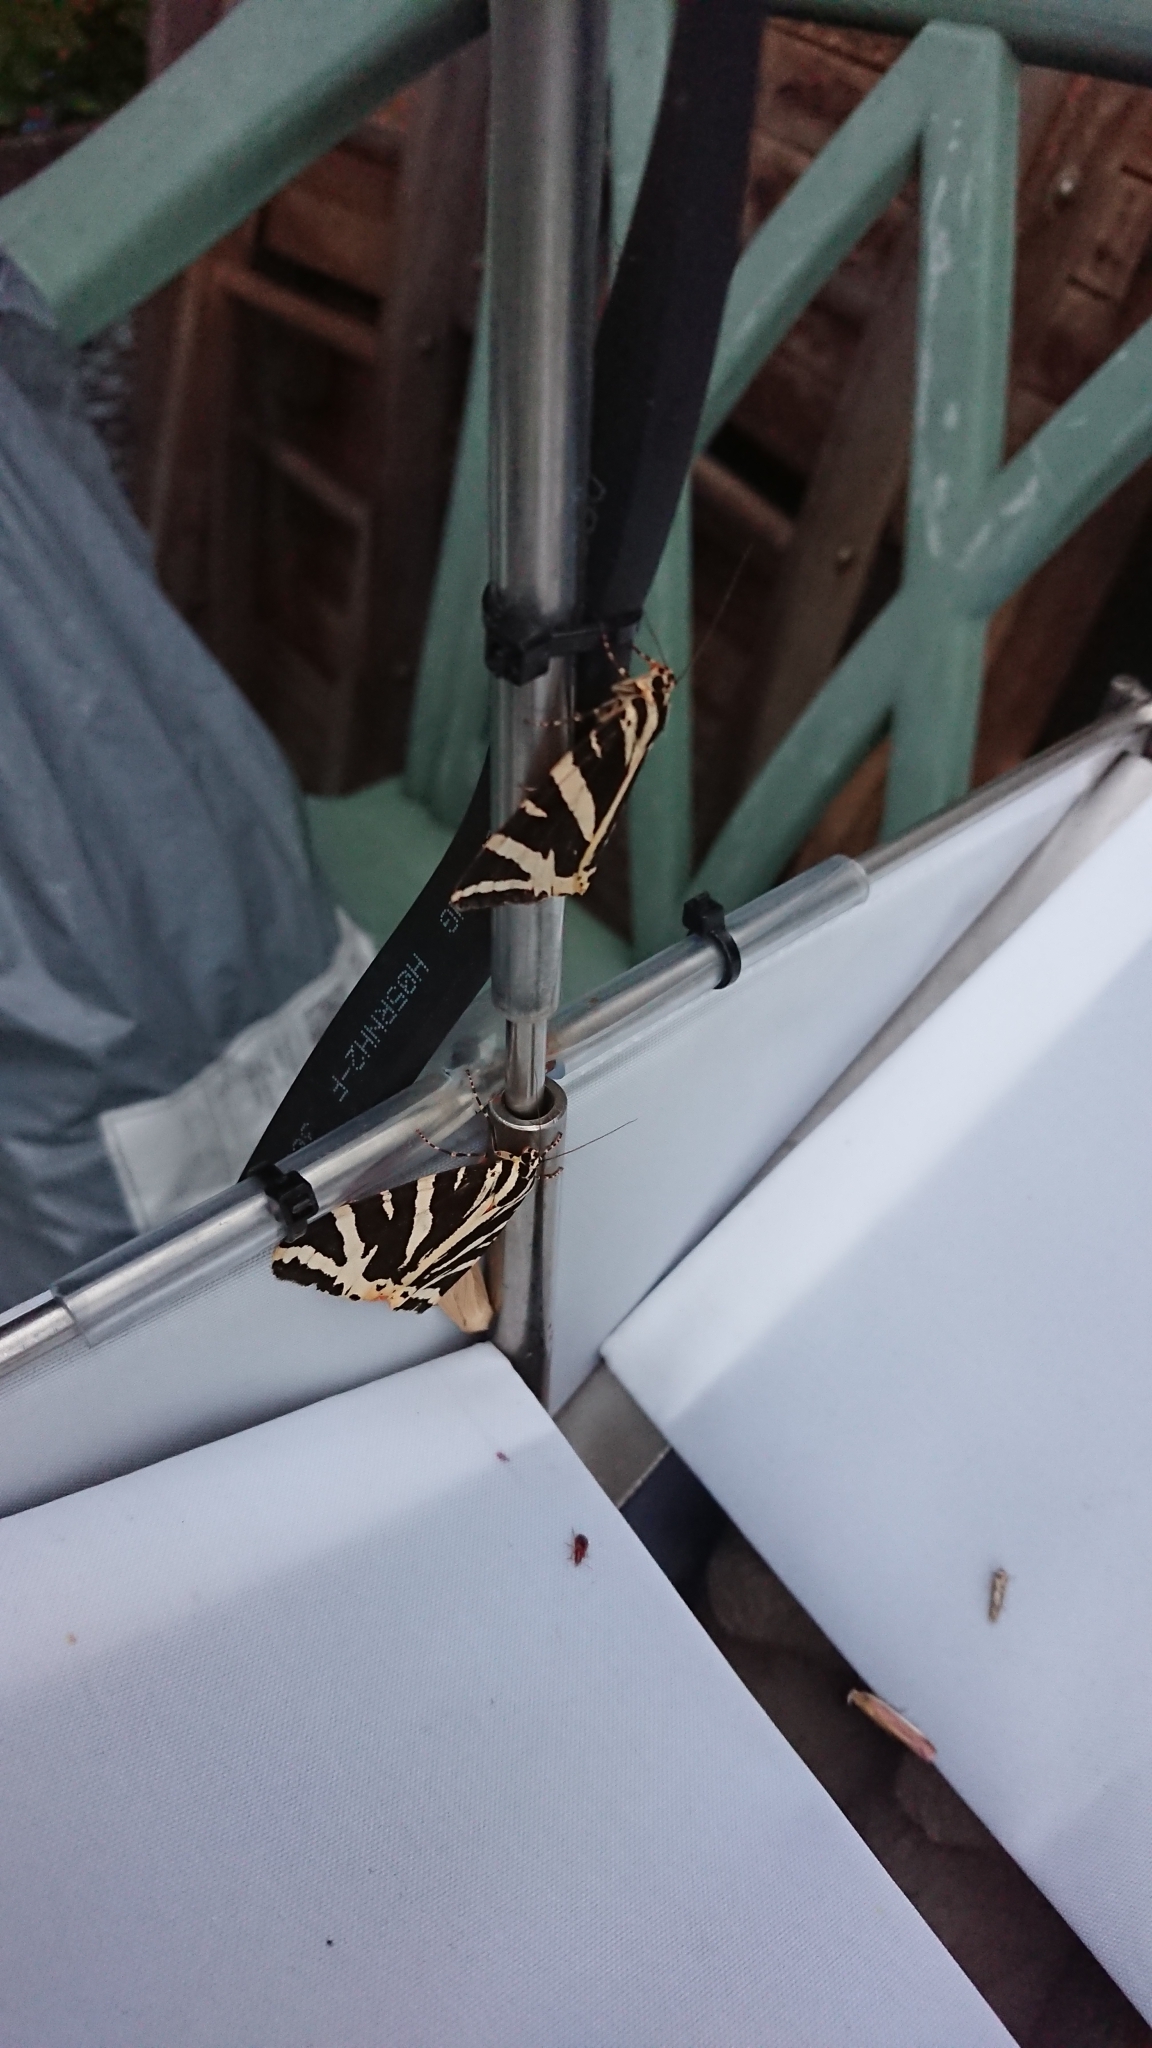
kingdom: Animalia
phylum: Arthropoda
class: Insecta
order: Lepidoptera
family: Erebidae
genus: Euplagia
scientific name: Euplagia quadripunctaria
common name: Jersey tiger
